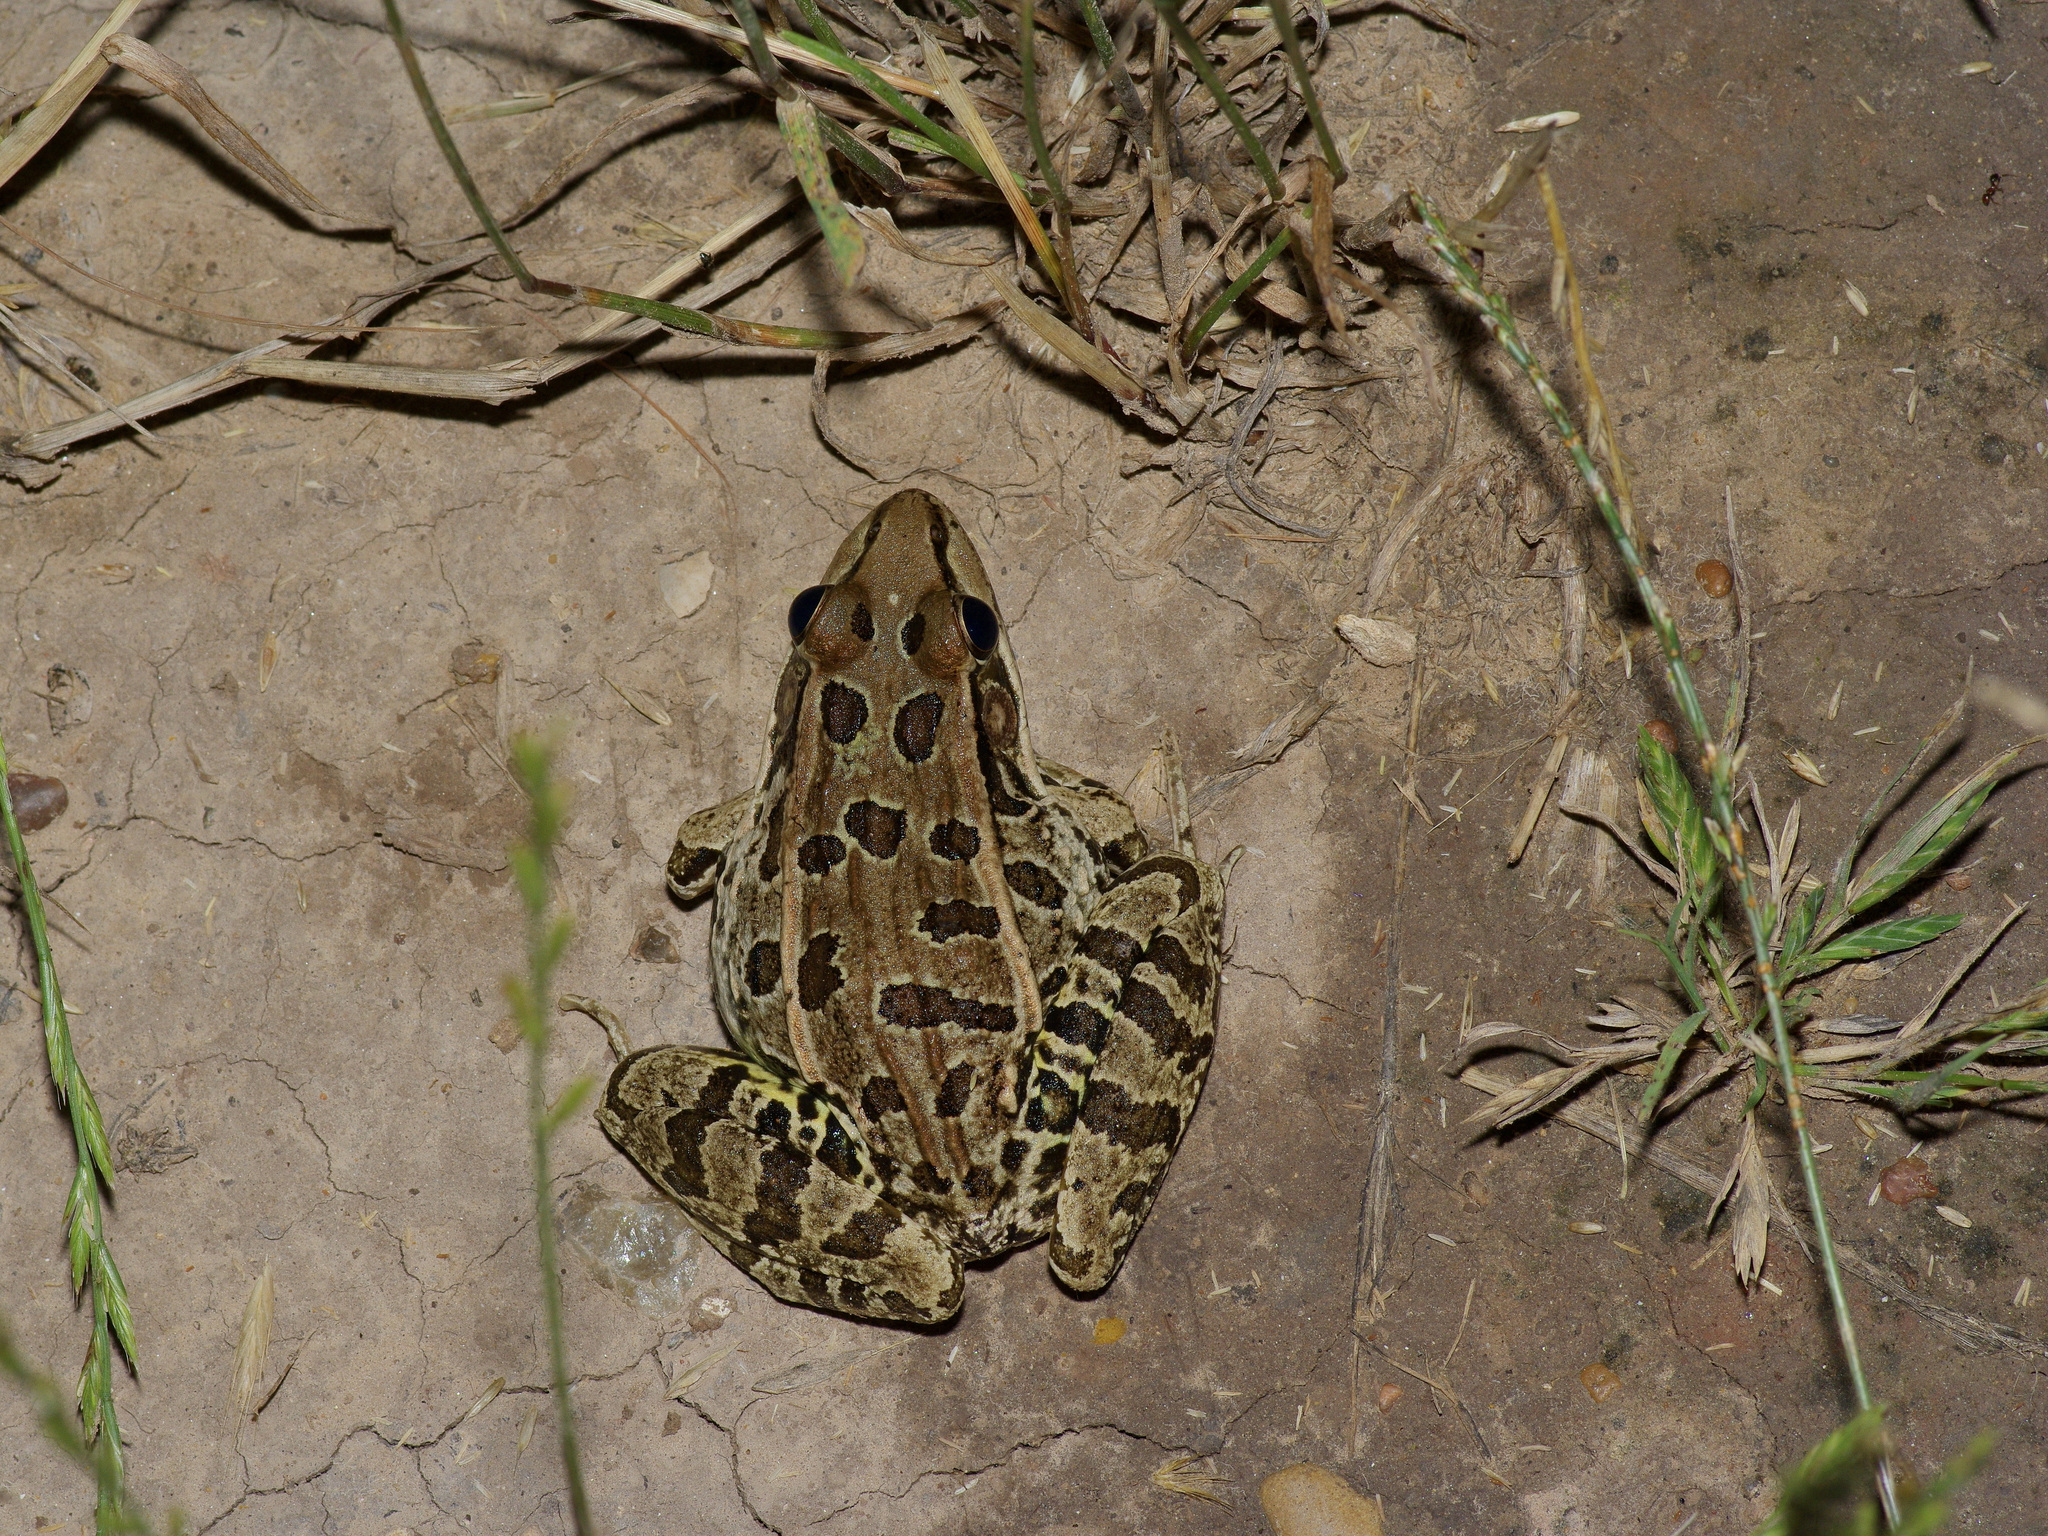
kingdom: Animalia
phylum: Chordata
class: Amphibia
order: Anura
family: Ranidae
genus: Lithobates
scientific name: Lithobates berlandieri
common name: Rio grande leopard frog
